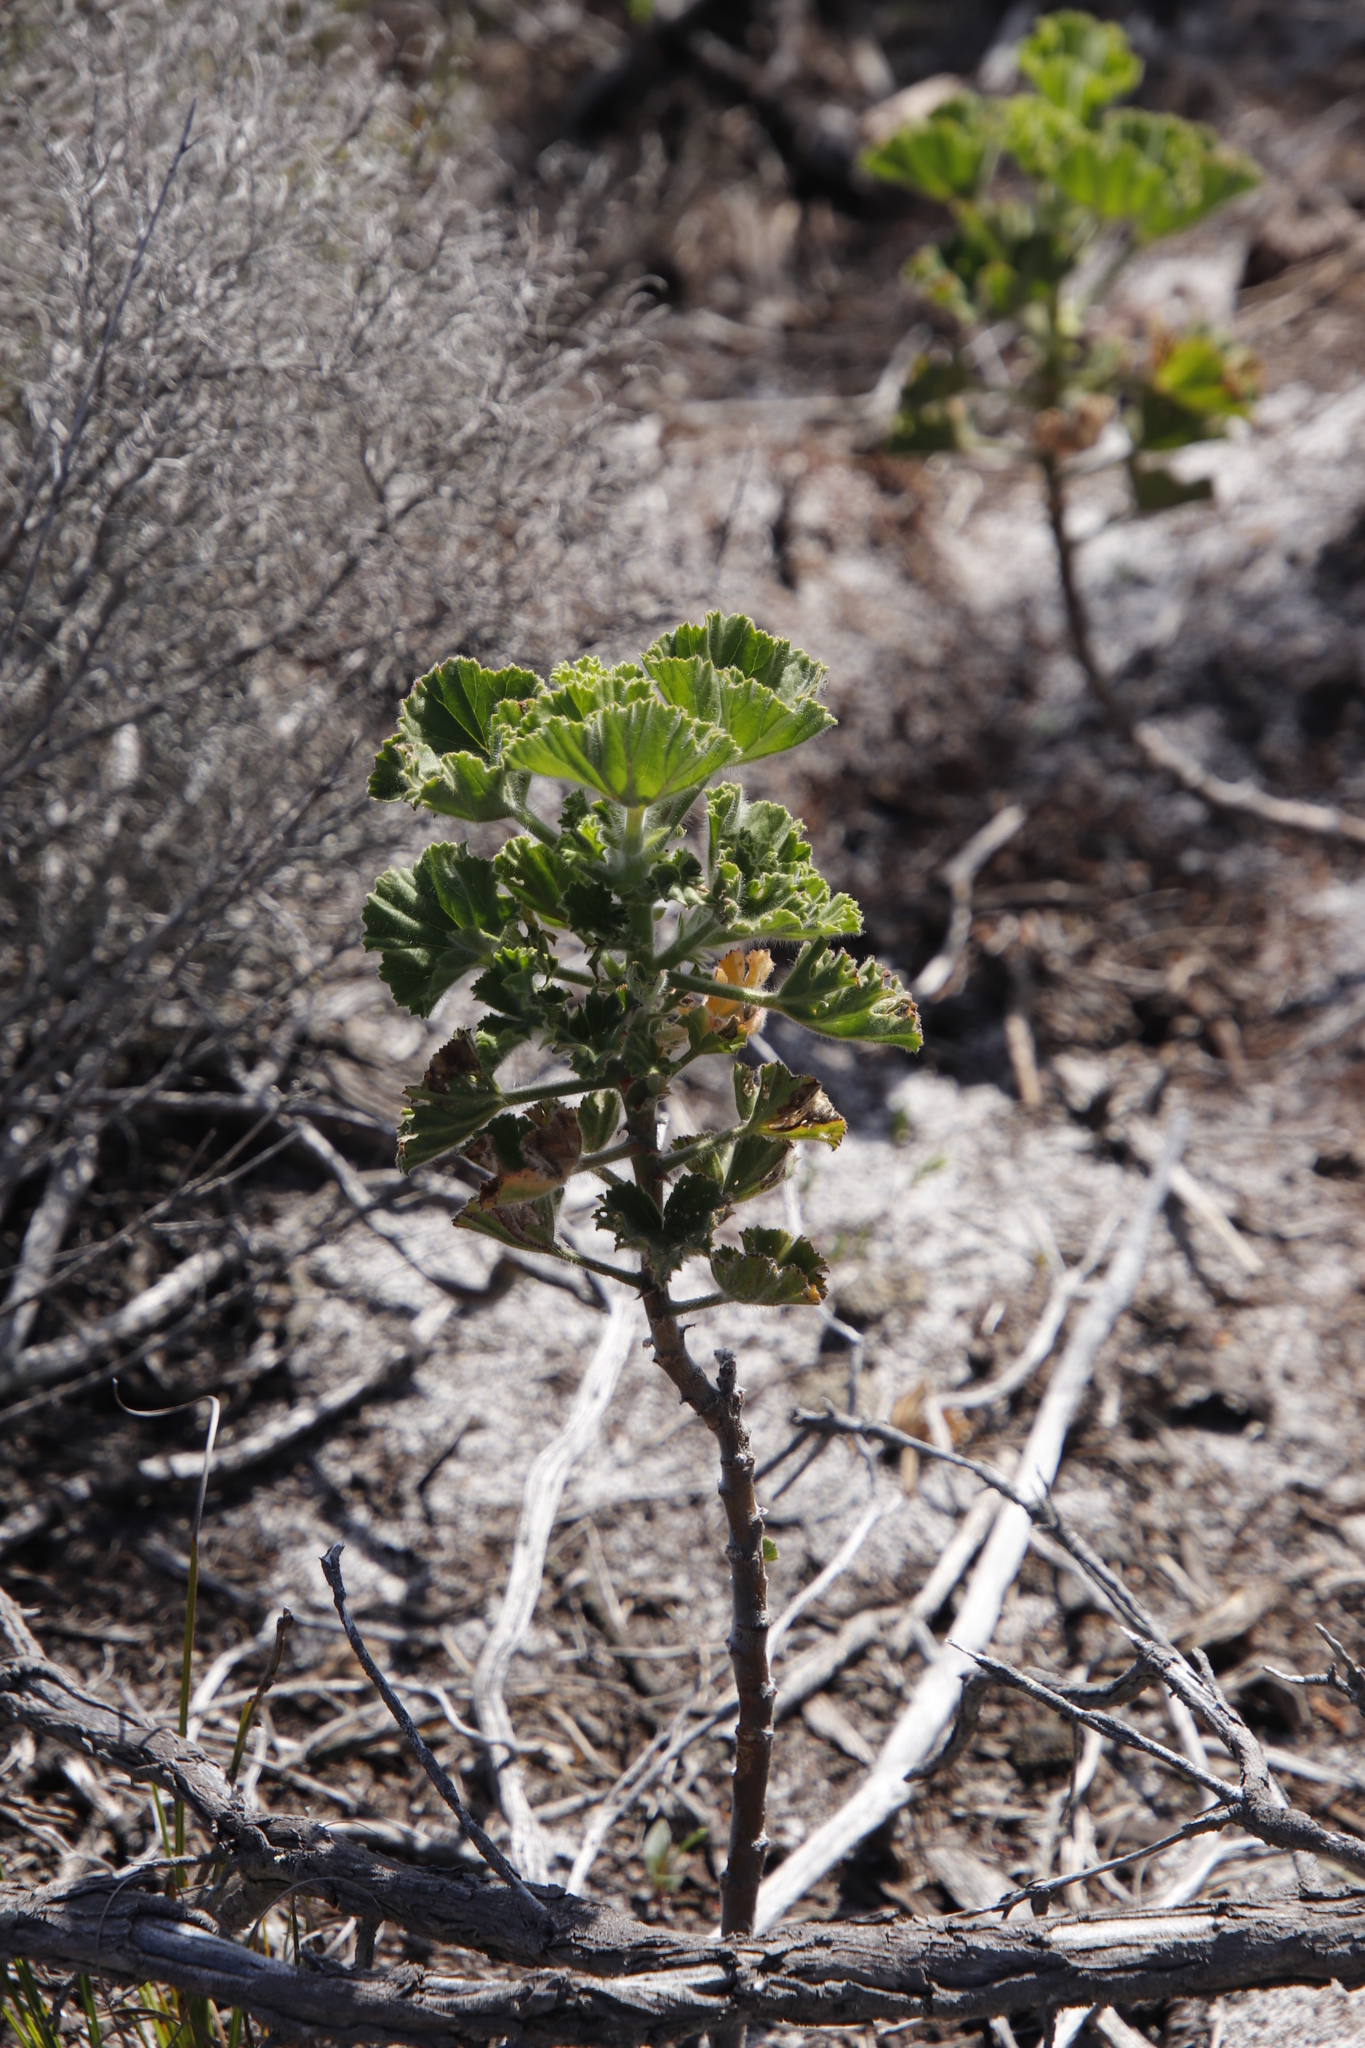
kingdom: Plantae
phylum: Tracheophyta
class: Magnoliopsida
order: Geraniales
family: Geraniaceae
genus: Pelargonium
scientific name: Pelargonium cucullatum
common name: Tree pelargonium
